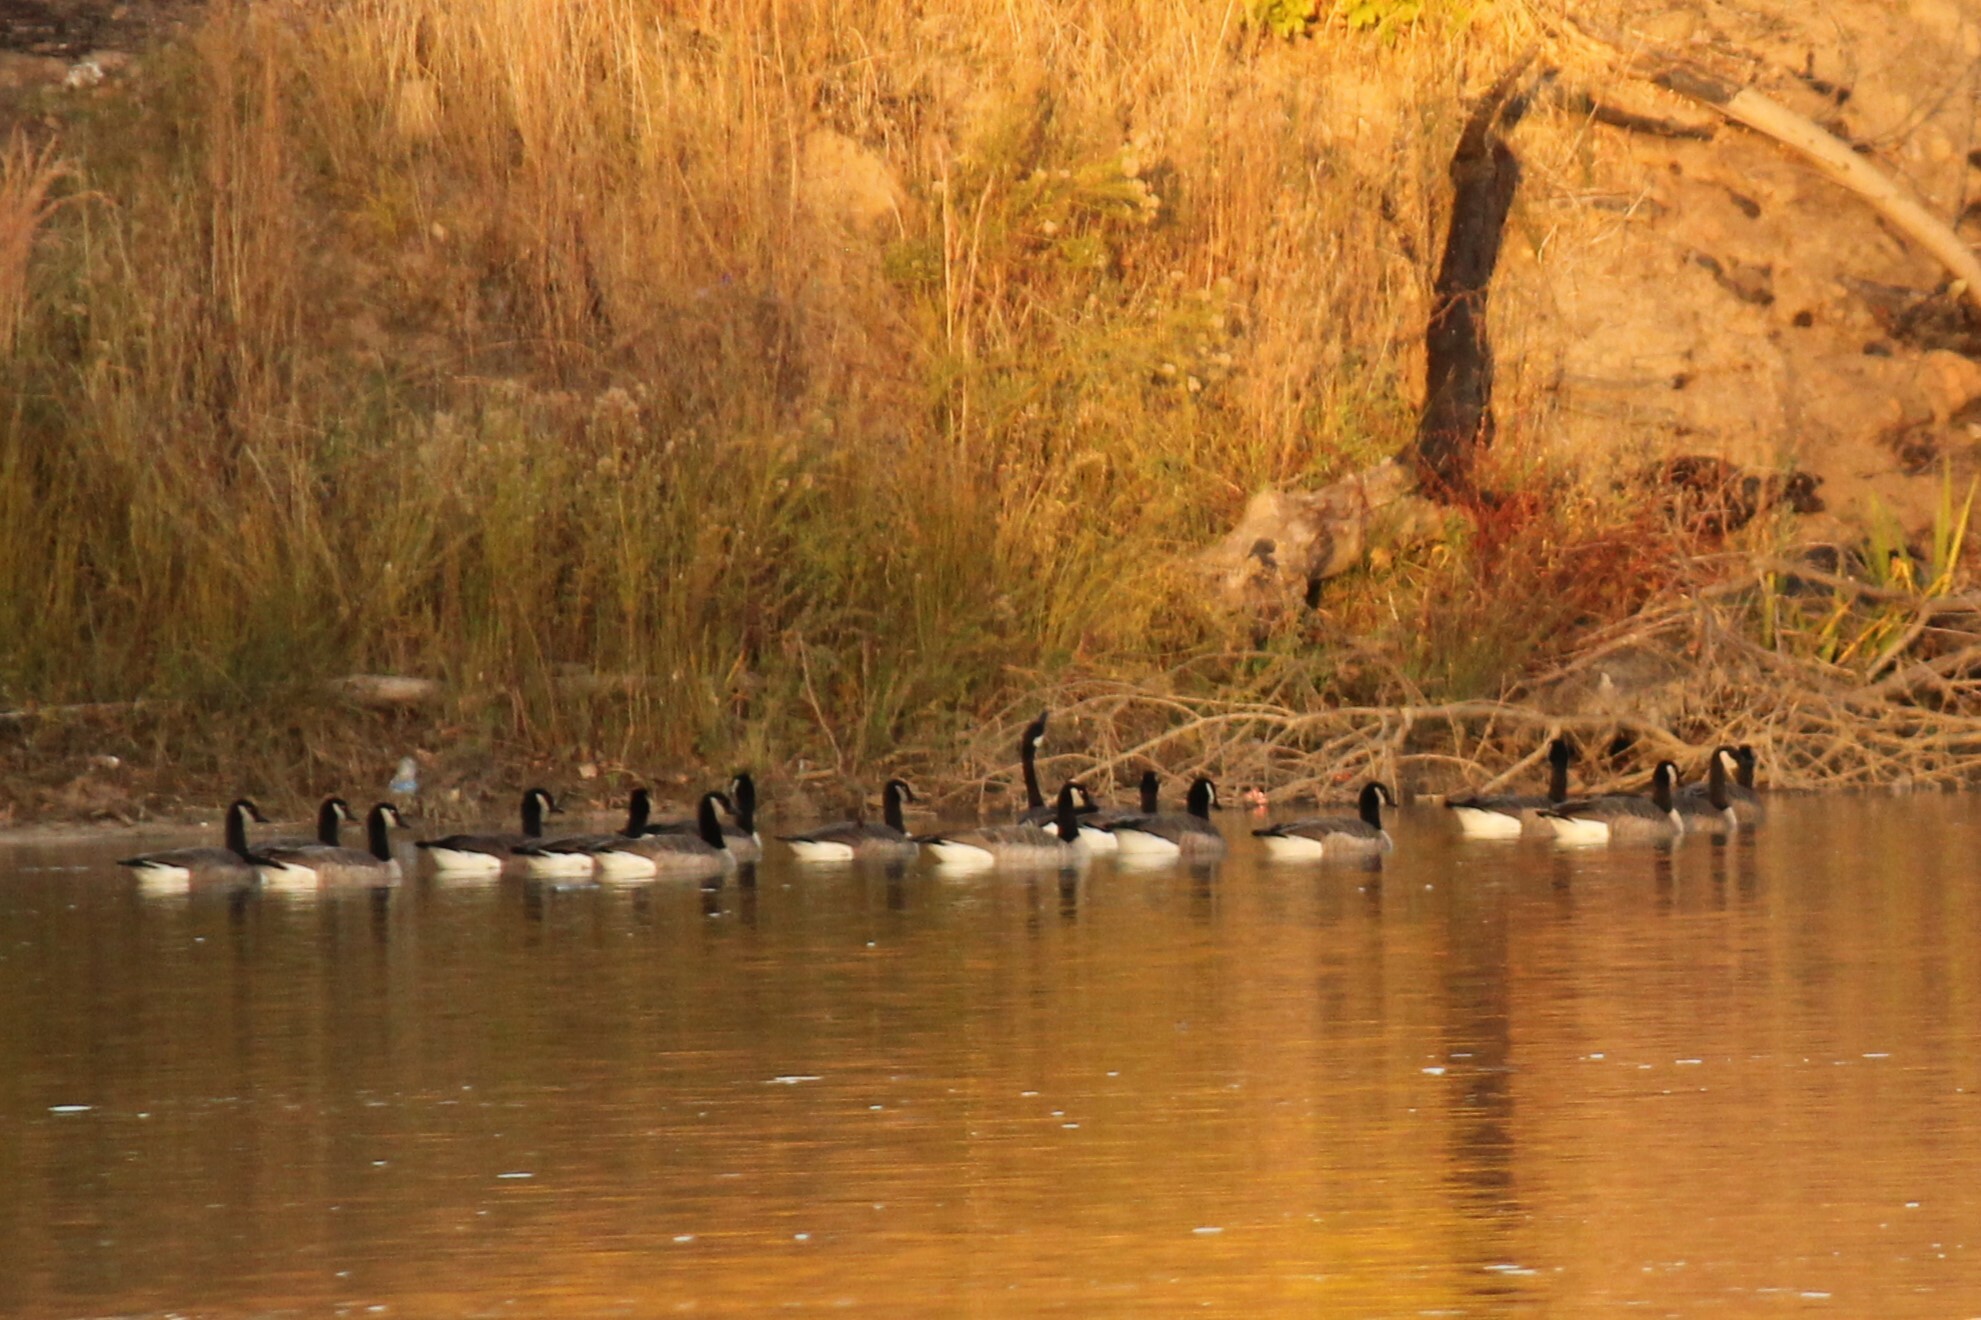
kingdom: Animalia
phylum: Chordata
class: Aves
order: Anseriformes
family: Anatidae
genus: Branta
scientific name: Branta canadensis
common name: Canada goose
